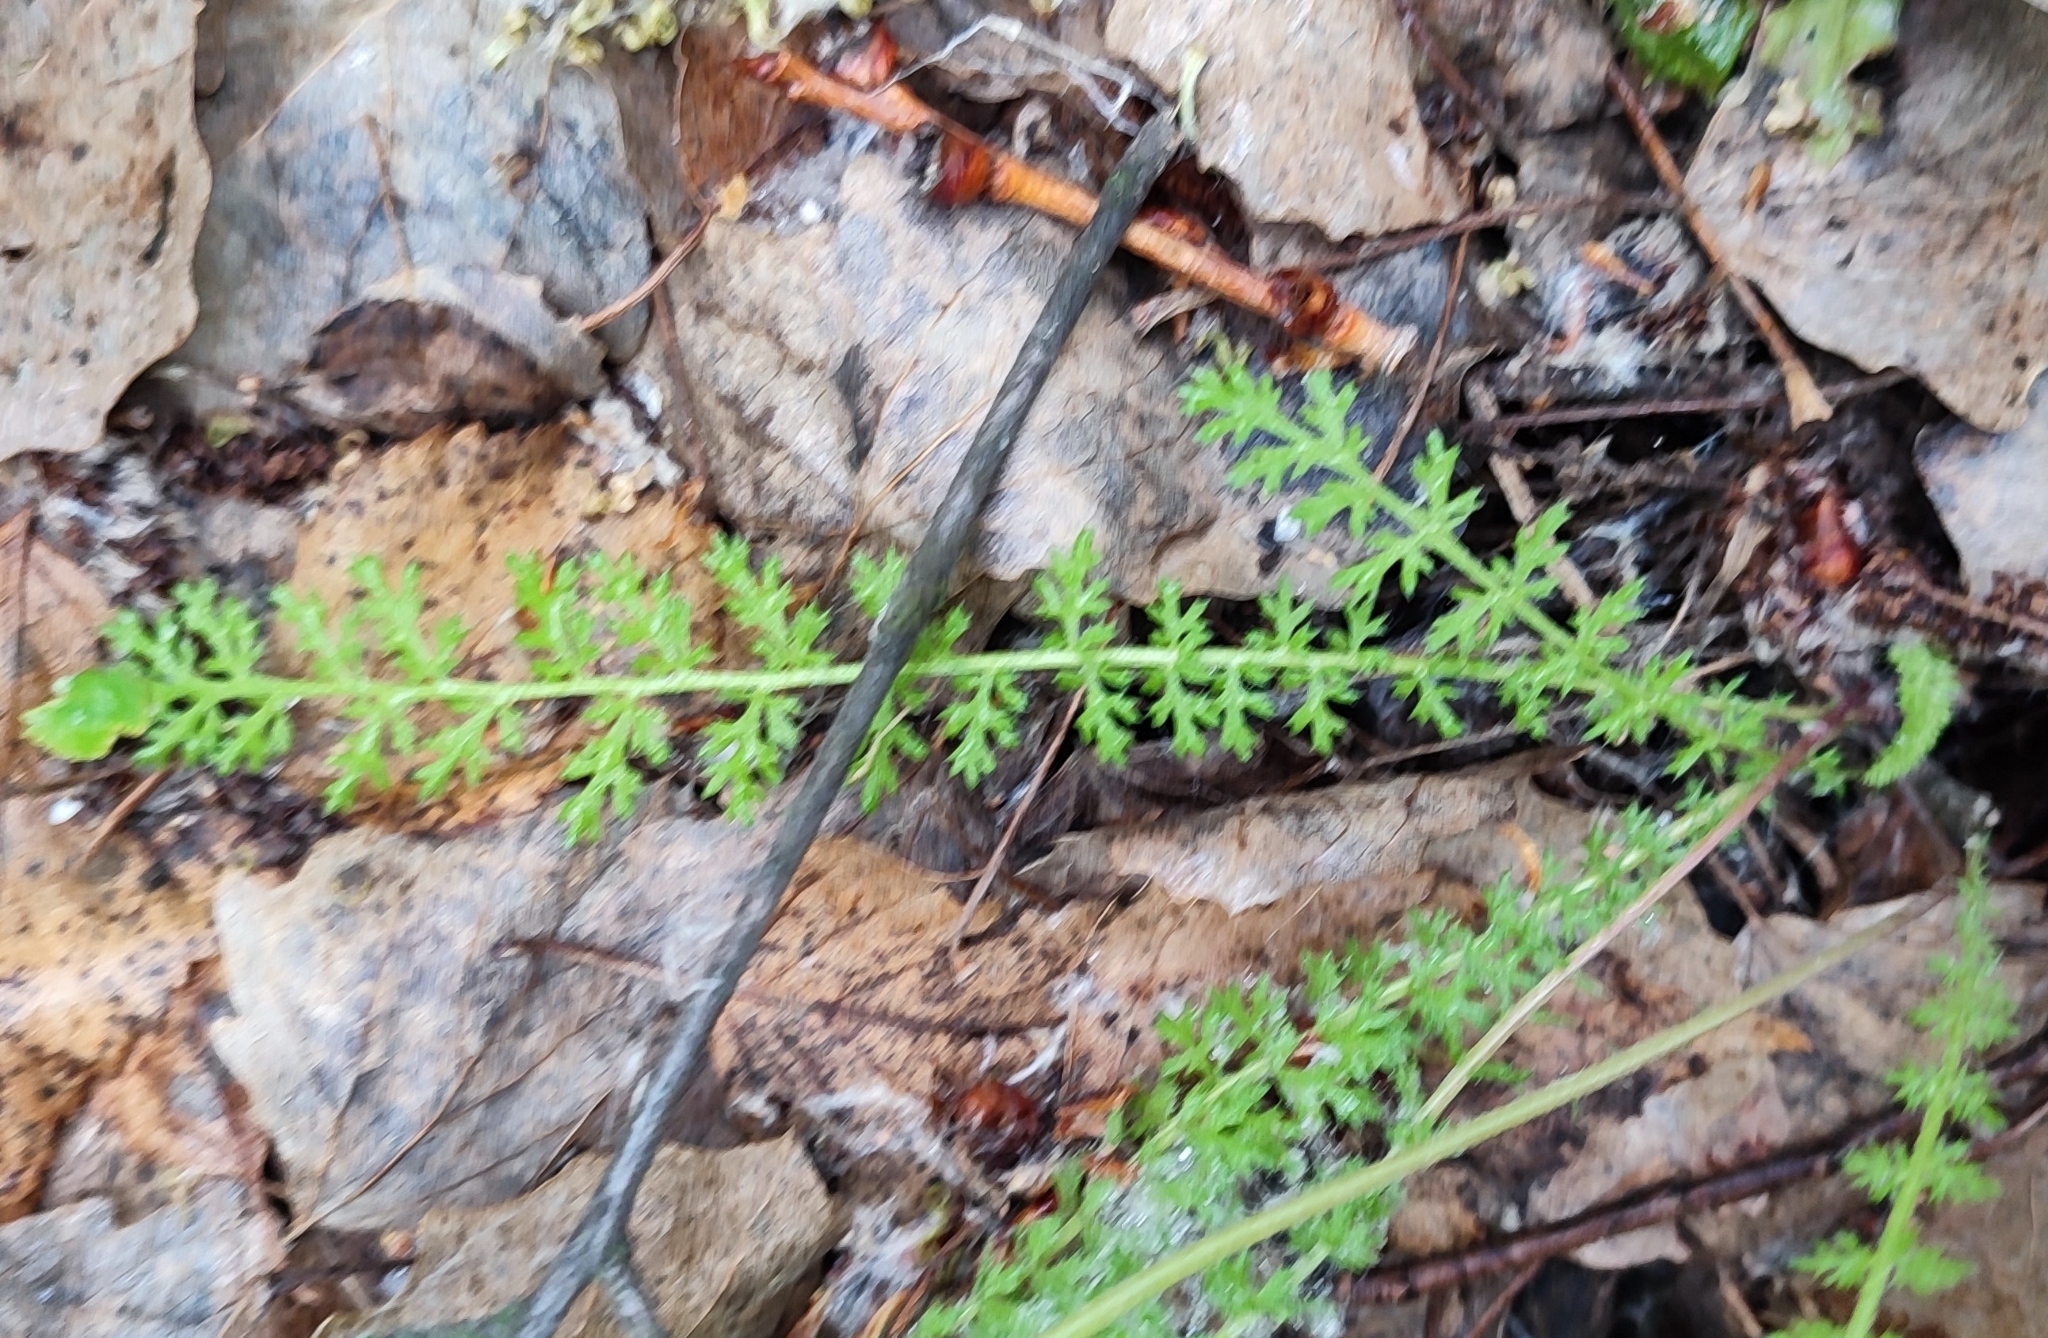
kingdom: Plantae
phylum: Tracheophyta
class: Magnoliopsida
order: Rosales
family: Rosaceae
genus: Filipendula
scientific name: Filipendula vulgaris
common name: Dropwort
